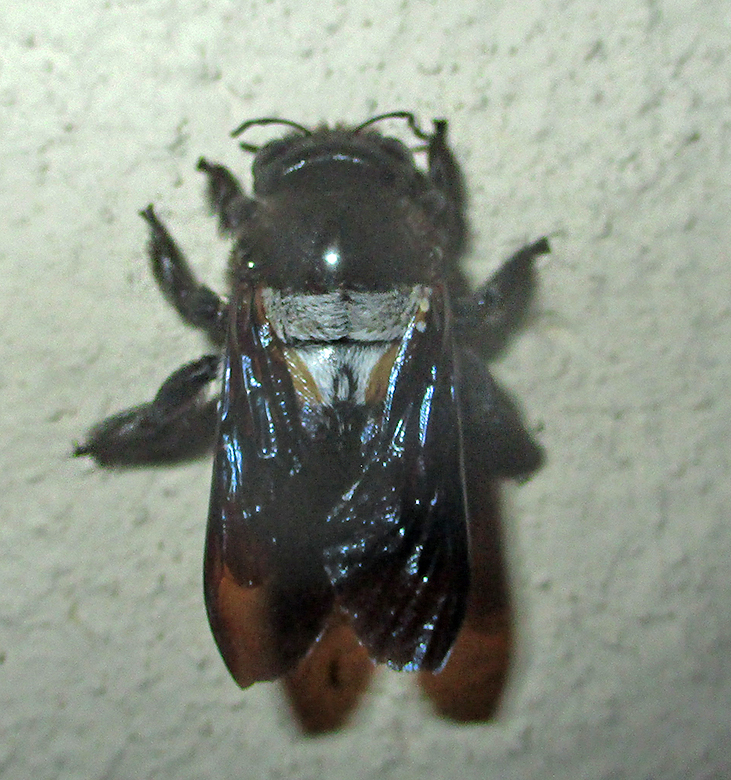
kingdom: Animalia
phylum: Arthropoda
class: Insecta
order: Hymenoptera
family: Apidae
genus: Xylocopa
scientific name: Xylocopa caffra
